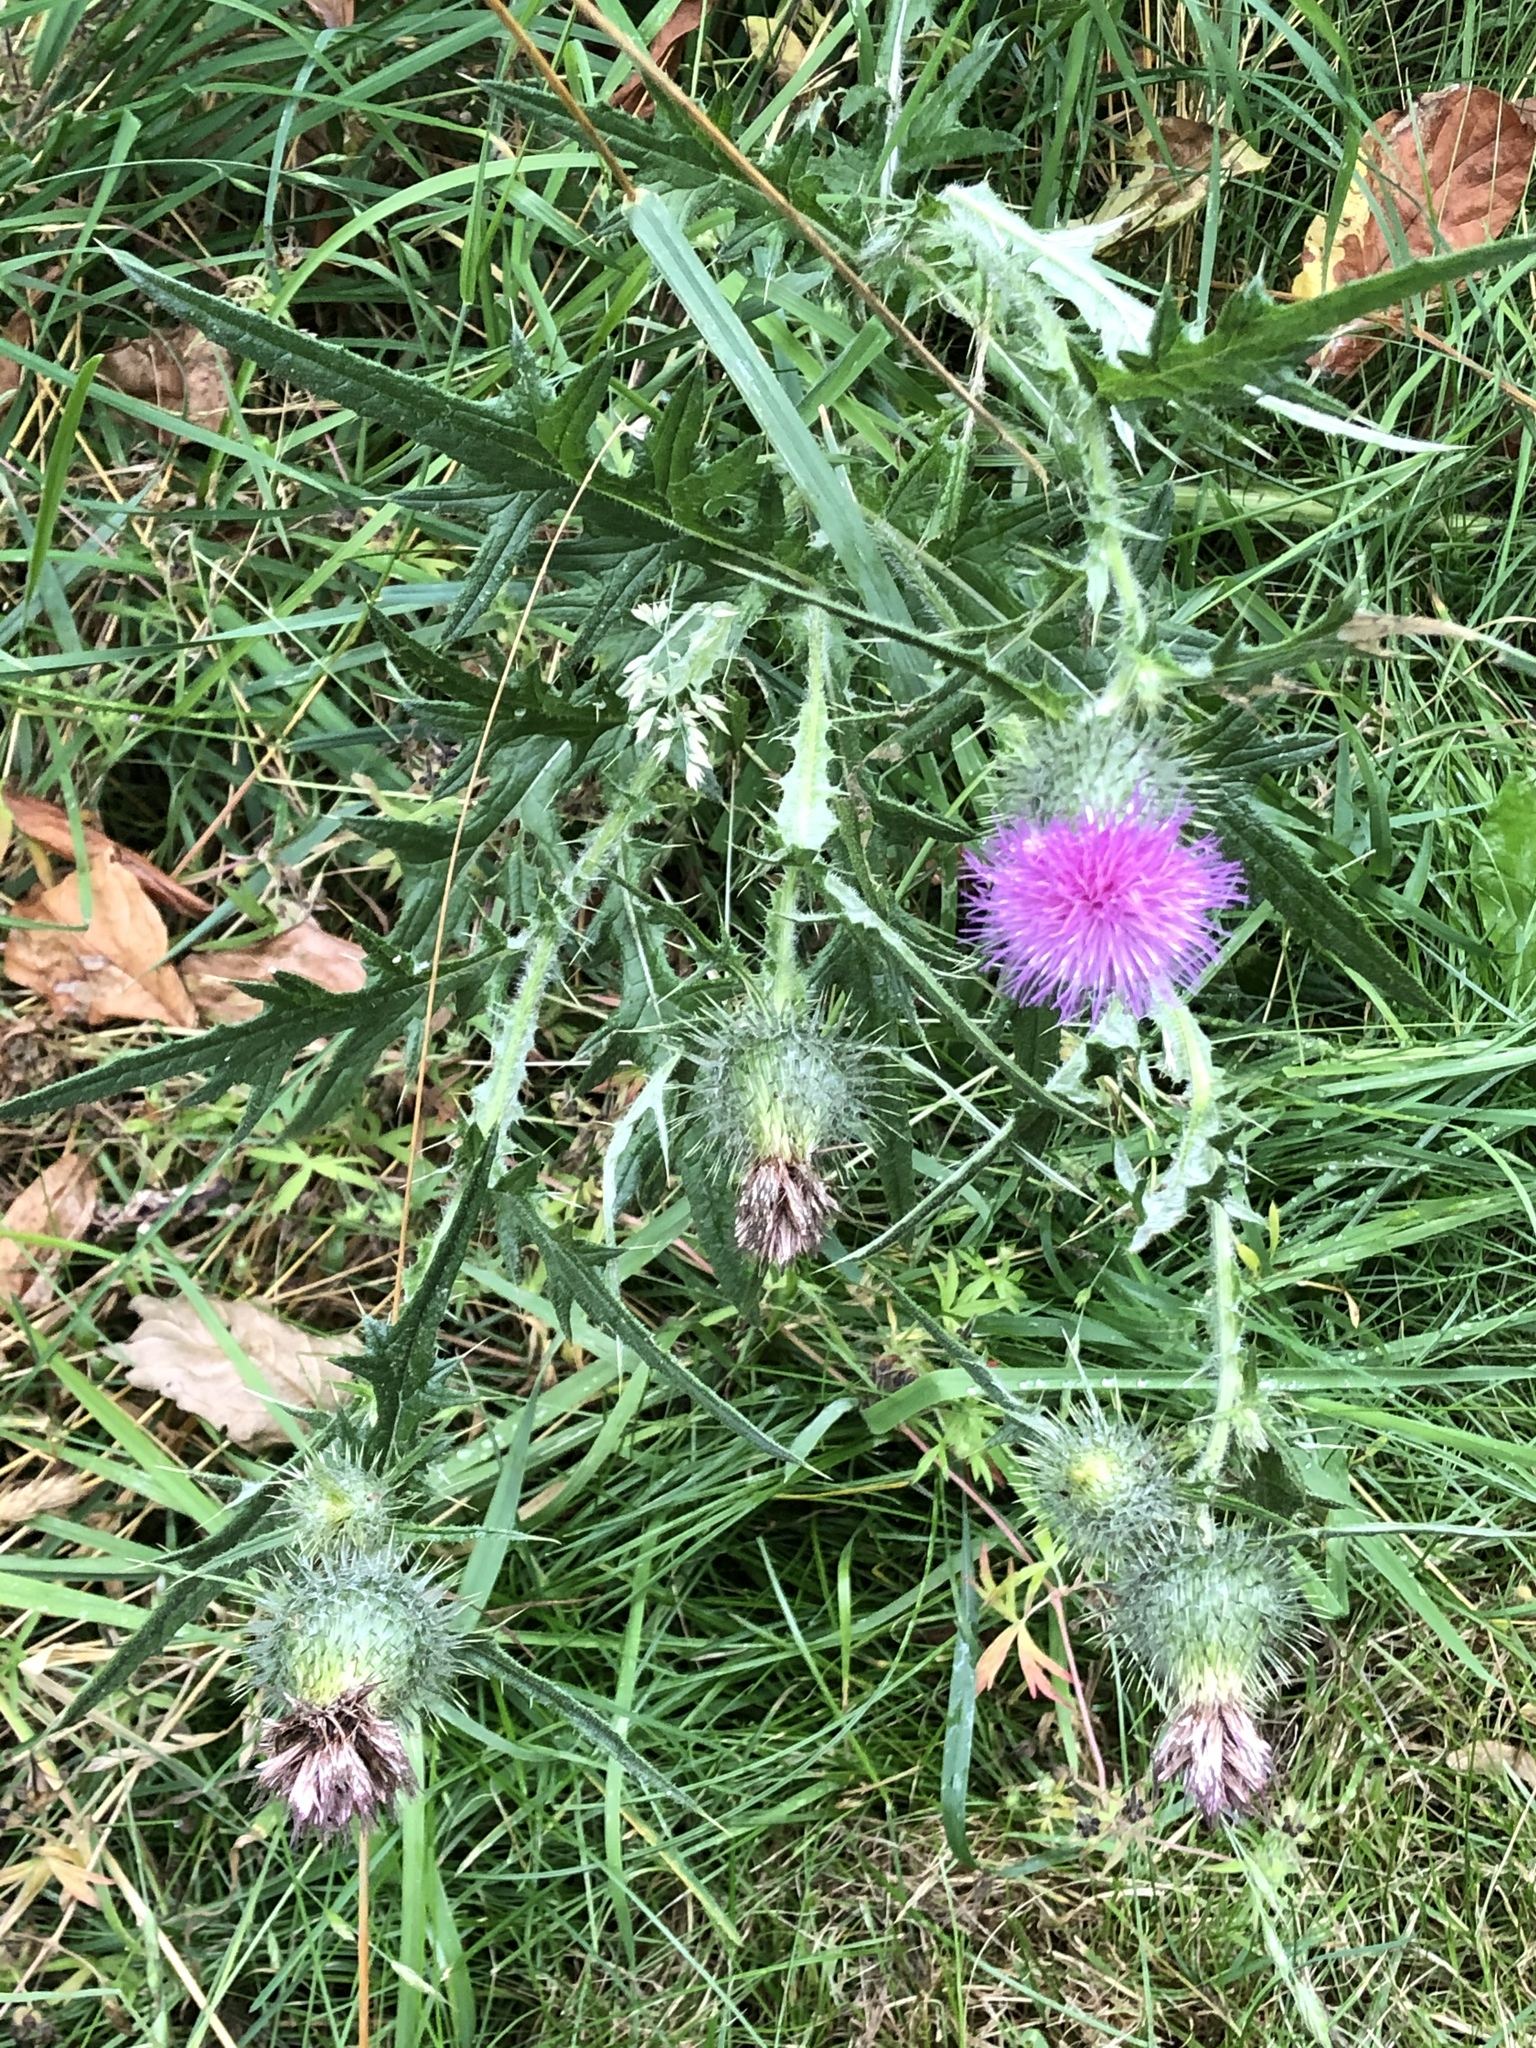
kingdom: Plantae
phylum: Tracheophyta
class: Magnoliopsida
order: Asterales
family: Asteraceae
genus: Cirsium
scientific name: Cirsium vulgare
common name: Bull thistle
